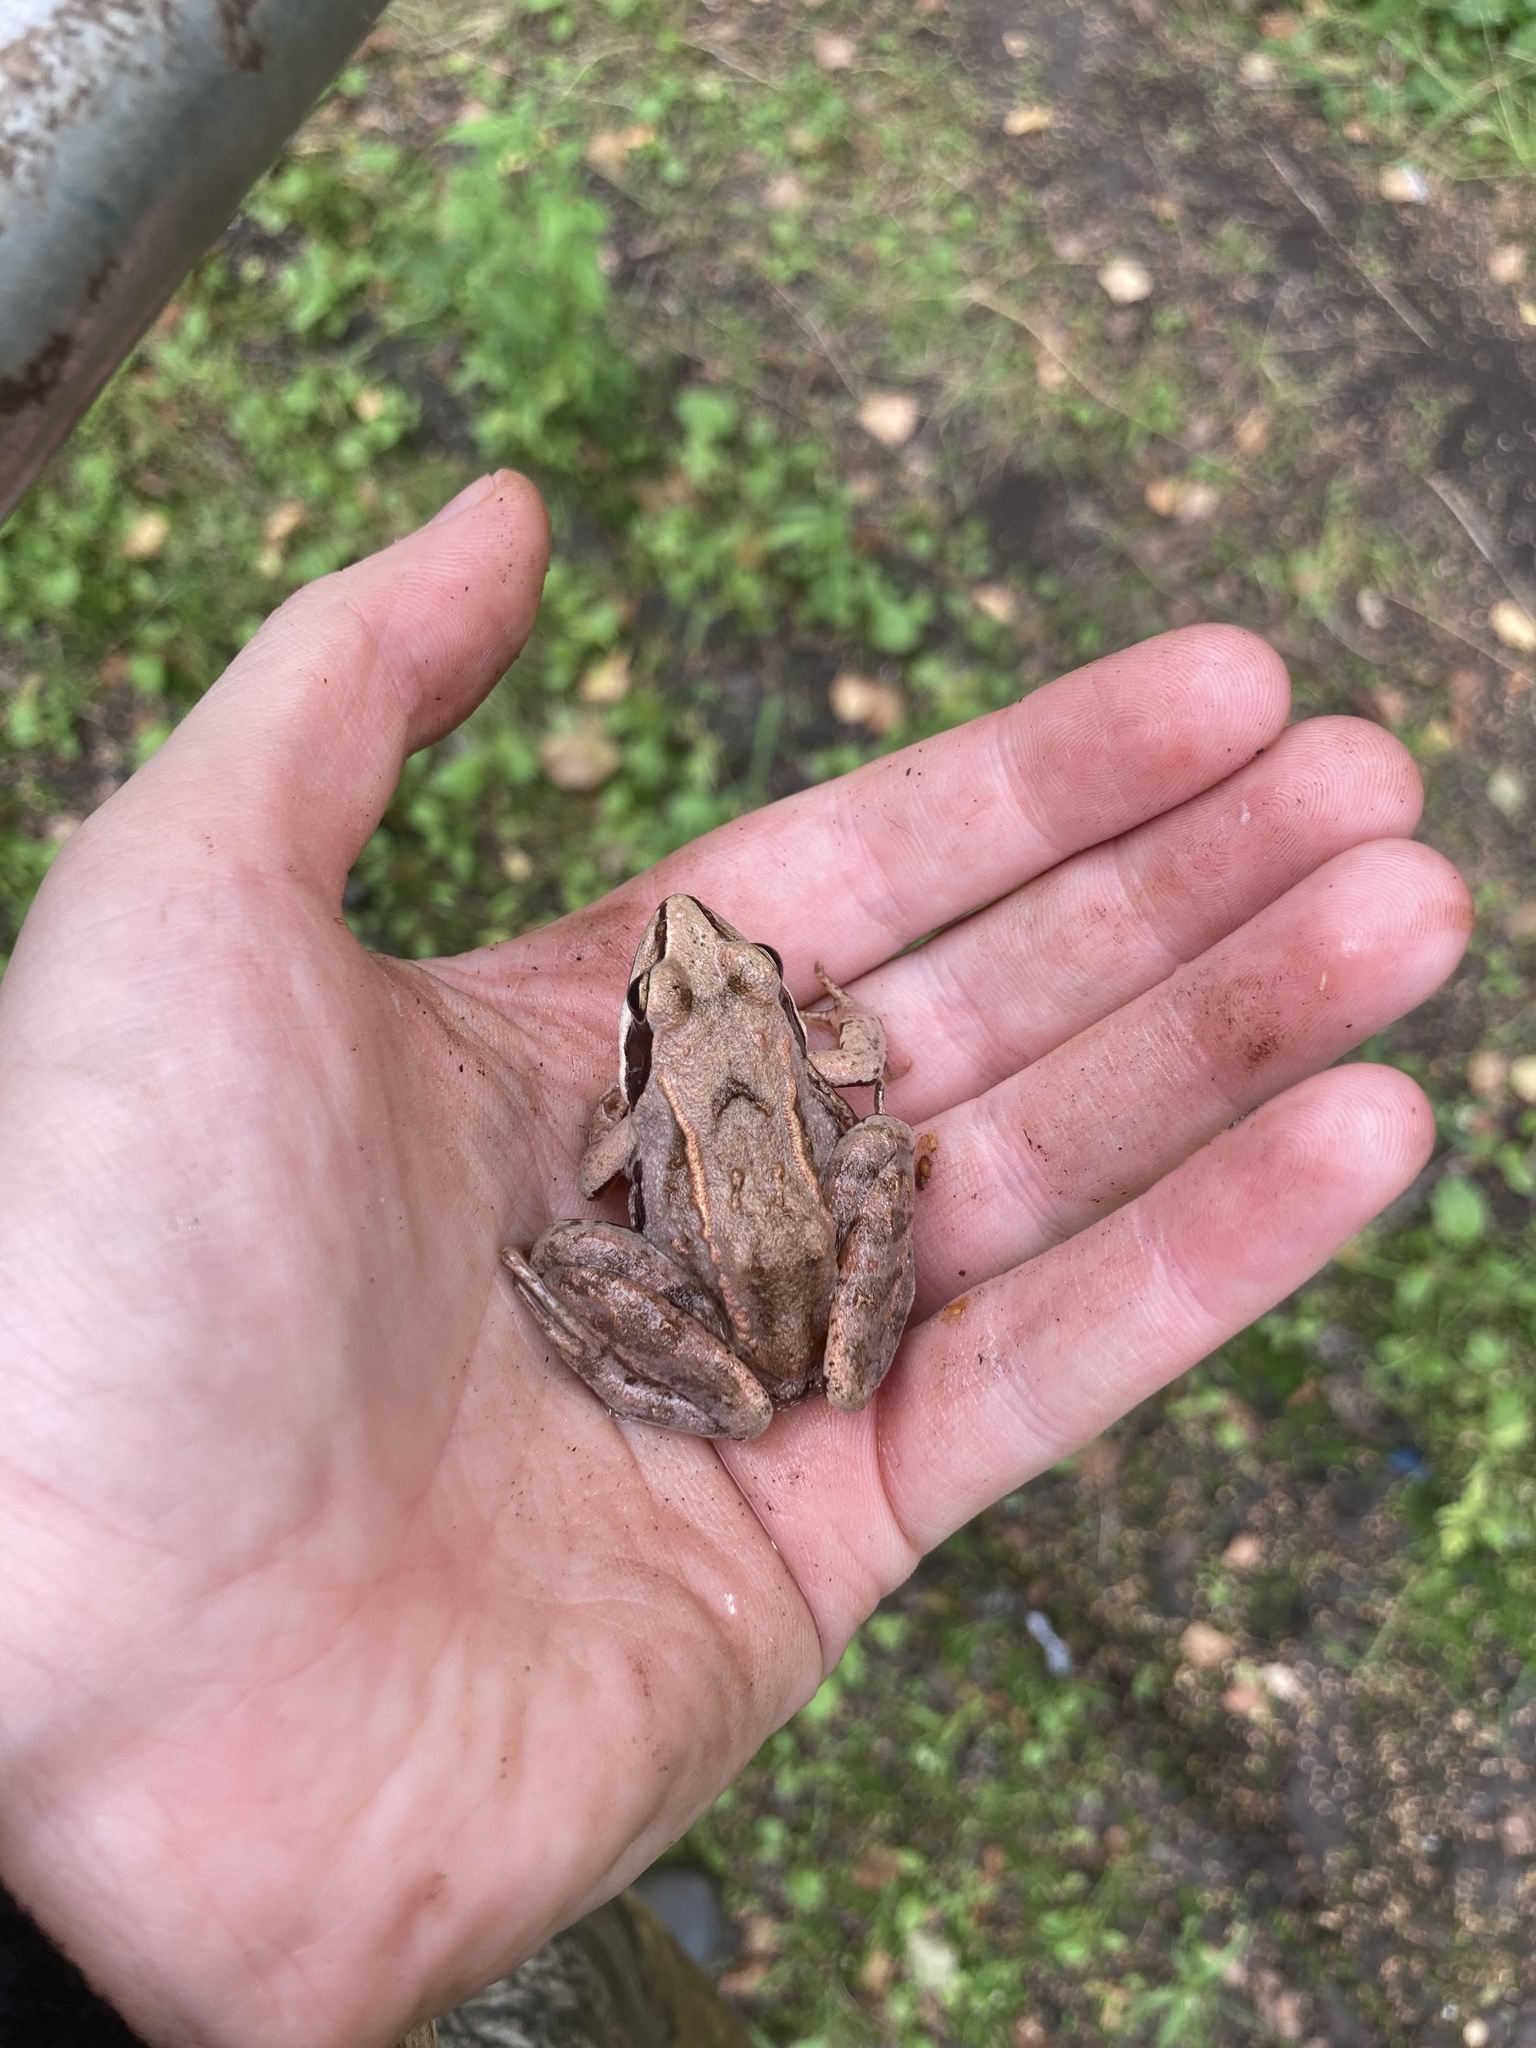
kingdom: Animalia
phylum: Chordata
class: Amphibia
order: Anura
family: Ranidae
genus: Rana
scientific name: Rana arvalis
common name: Moor frog
